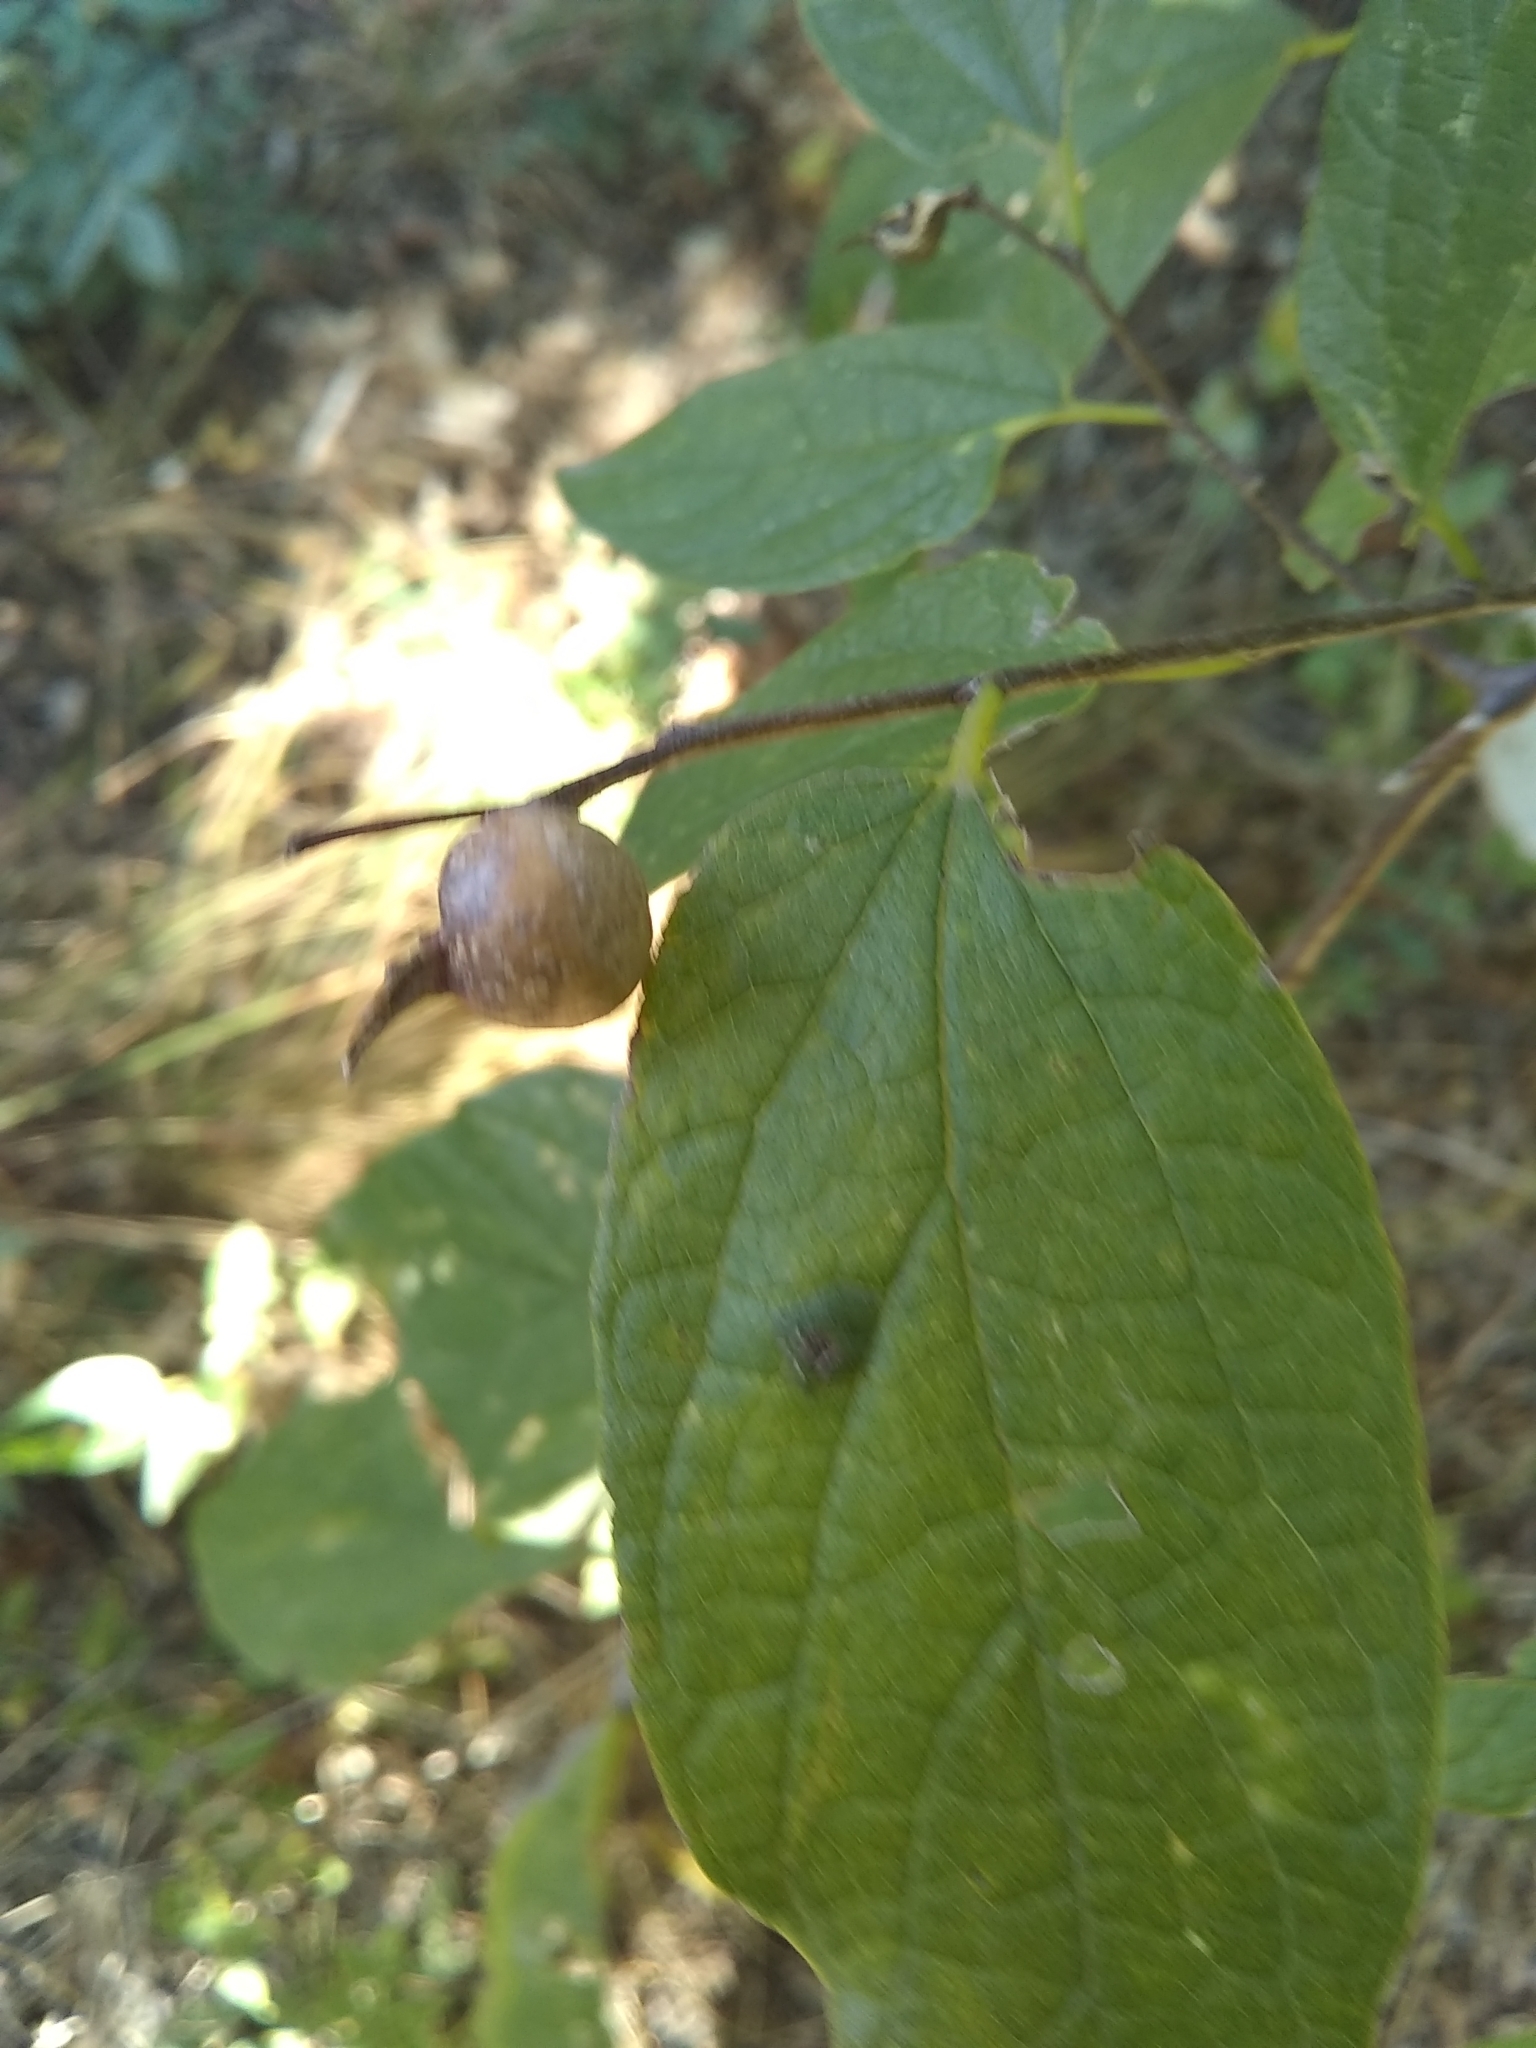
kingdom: Animalia
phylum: Arthropoda
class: Insecta
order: Hemiptera
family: Aphalaridae
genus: Pachypsylla
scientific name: Pachypsylla venusta
